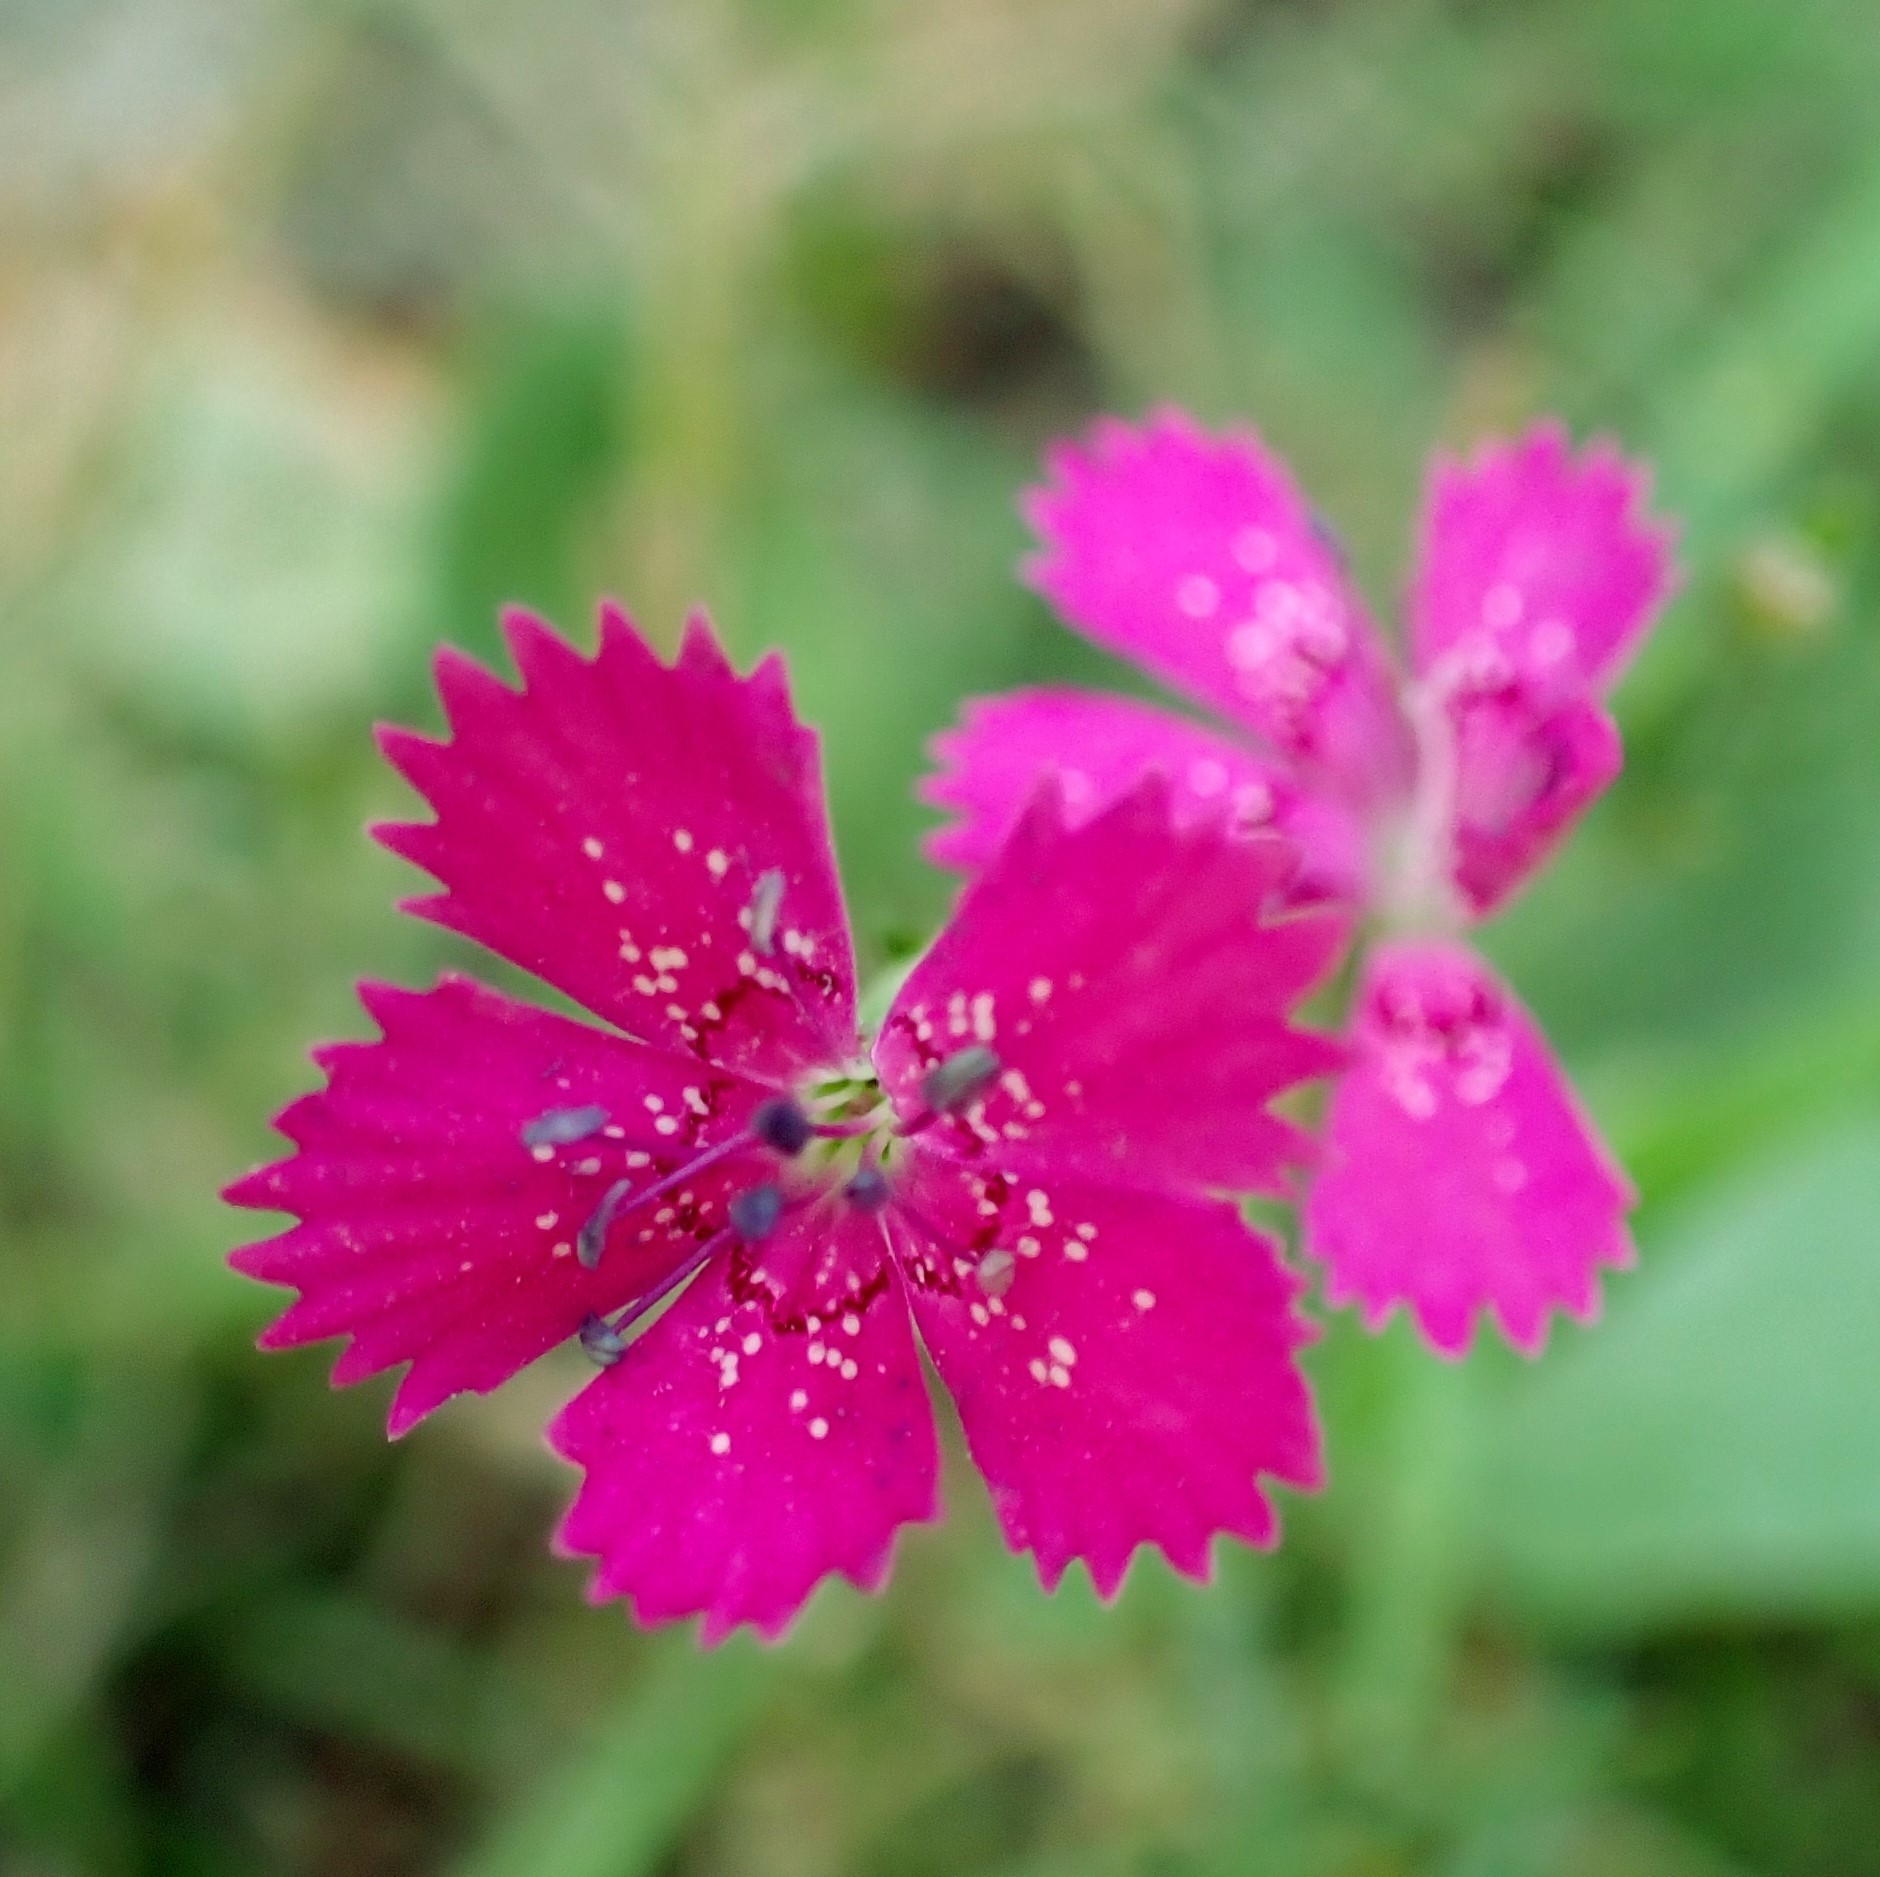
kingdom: Plantae
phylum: Tracheophyta
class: Magnoliopsida
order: Caryophyllales
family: Caryophyllaceae
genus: Dianthus
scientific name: Dianthus deltoides
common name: Maiden pink
